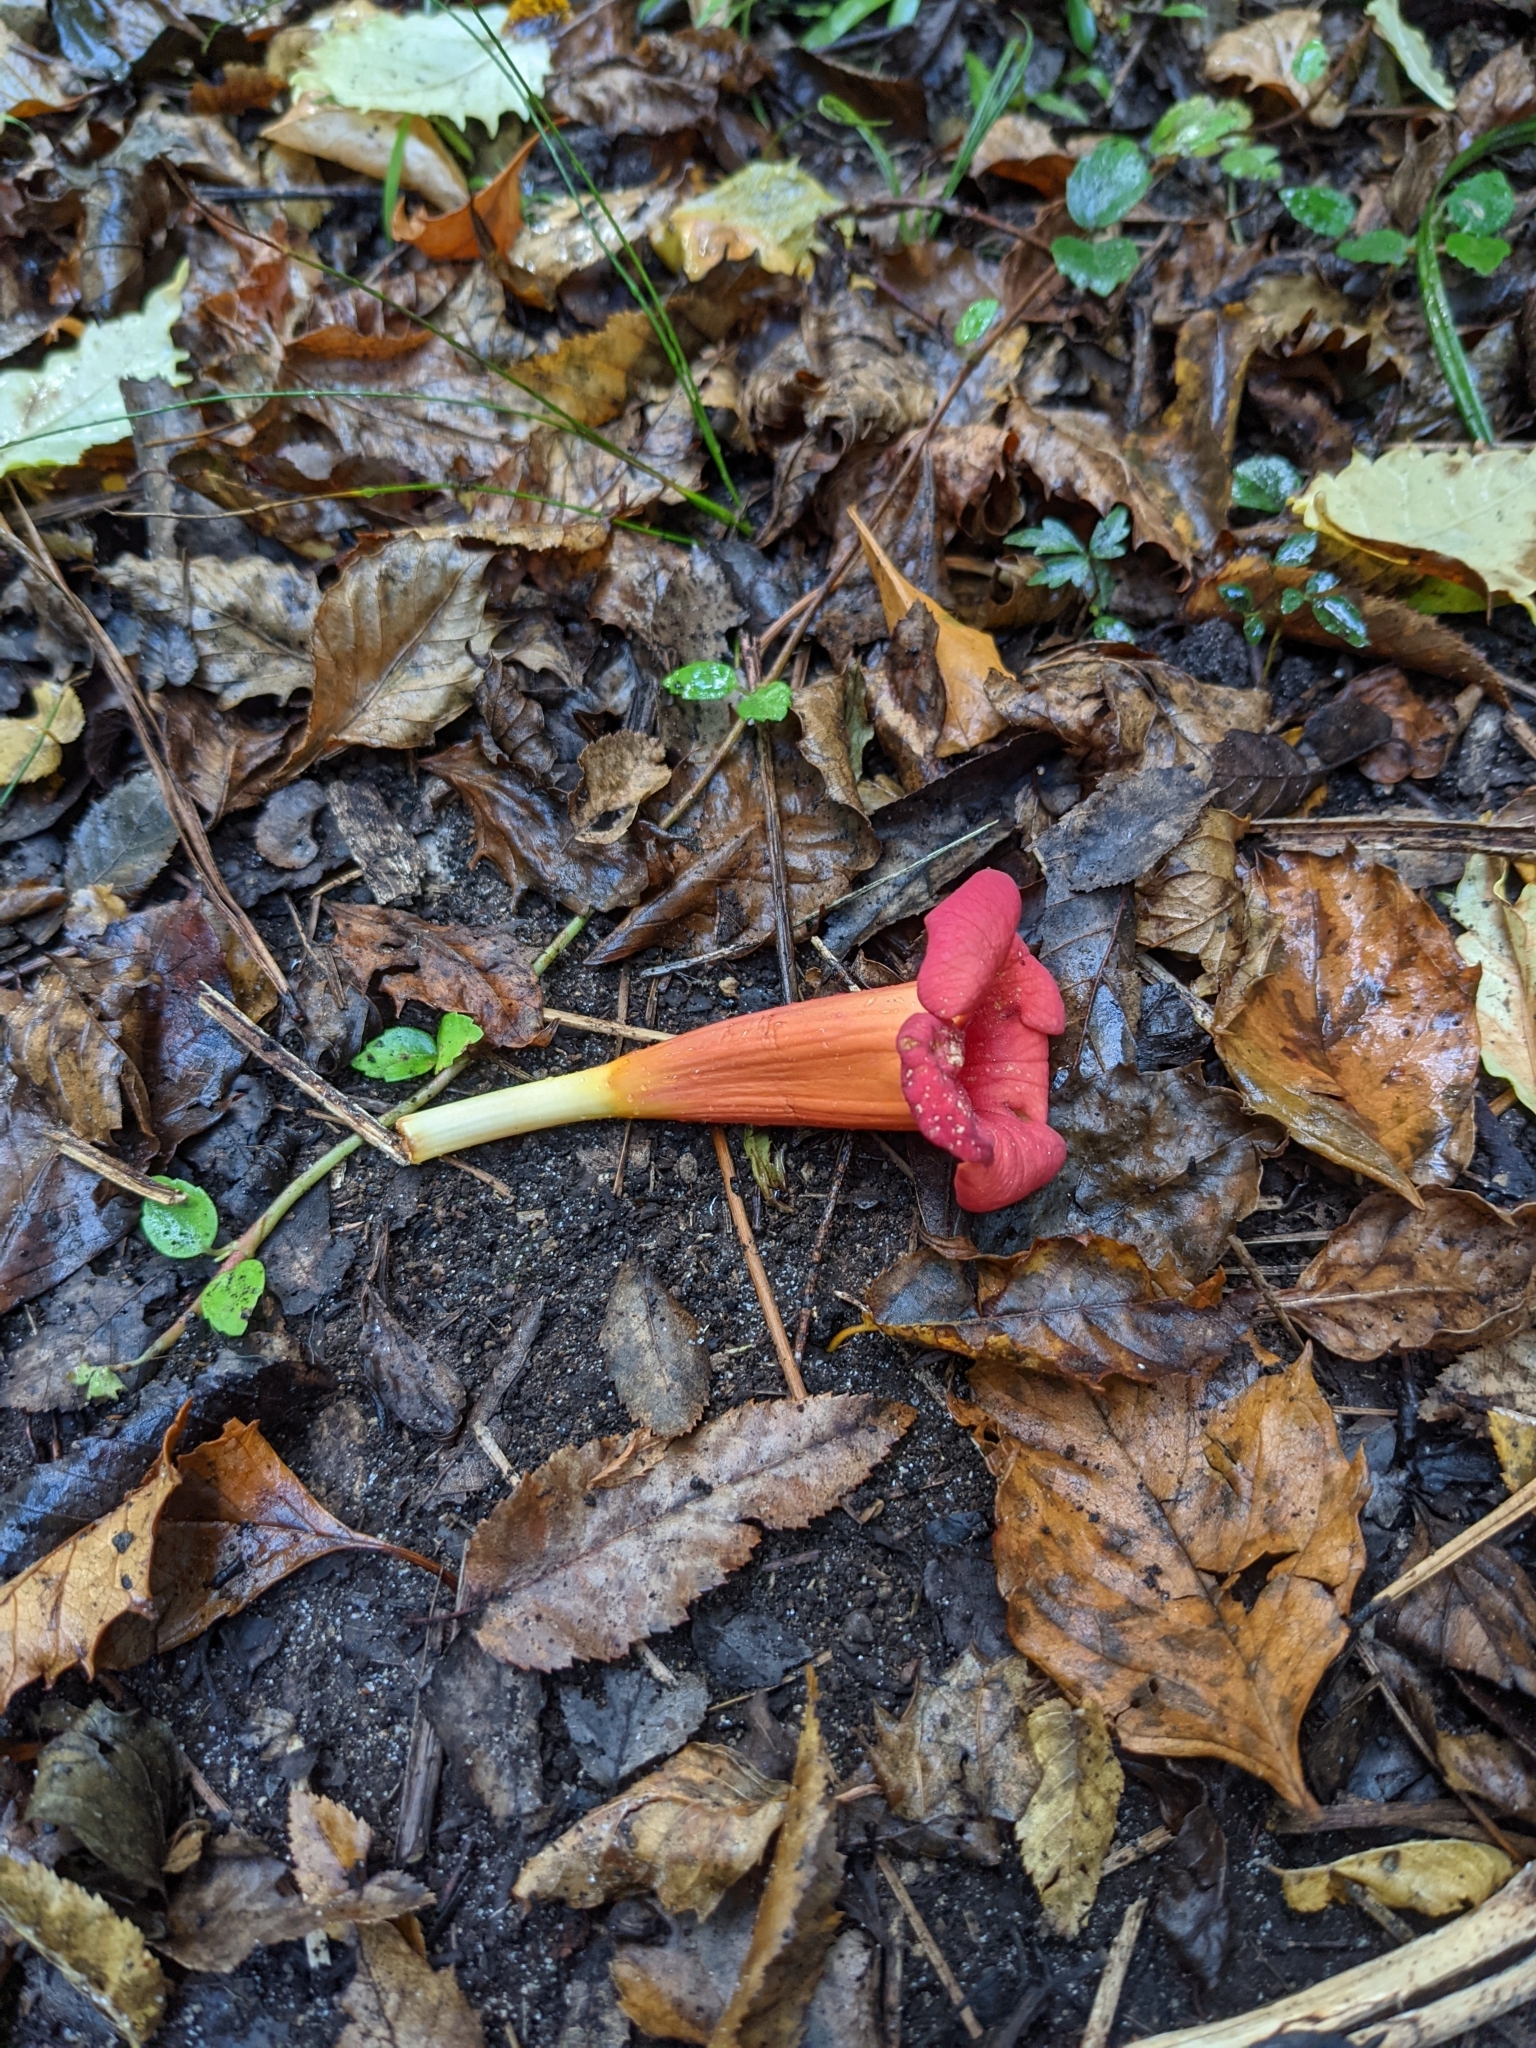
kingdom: Plantae
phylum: Tracheophyta
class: Magnoliopsida
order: Lamiales
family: Bignoniaceae
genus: Campsis
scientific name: Campsis radicans
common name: Trumpet-creeper
